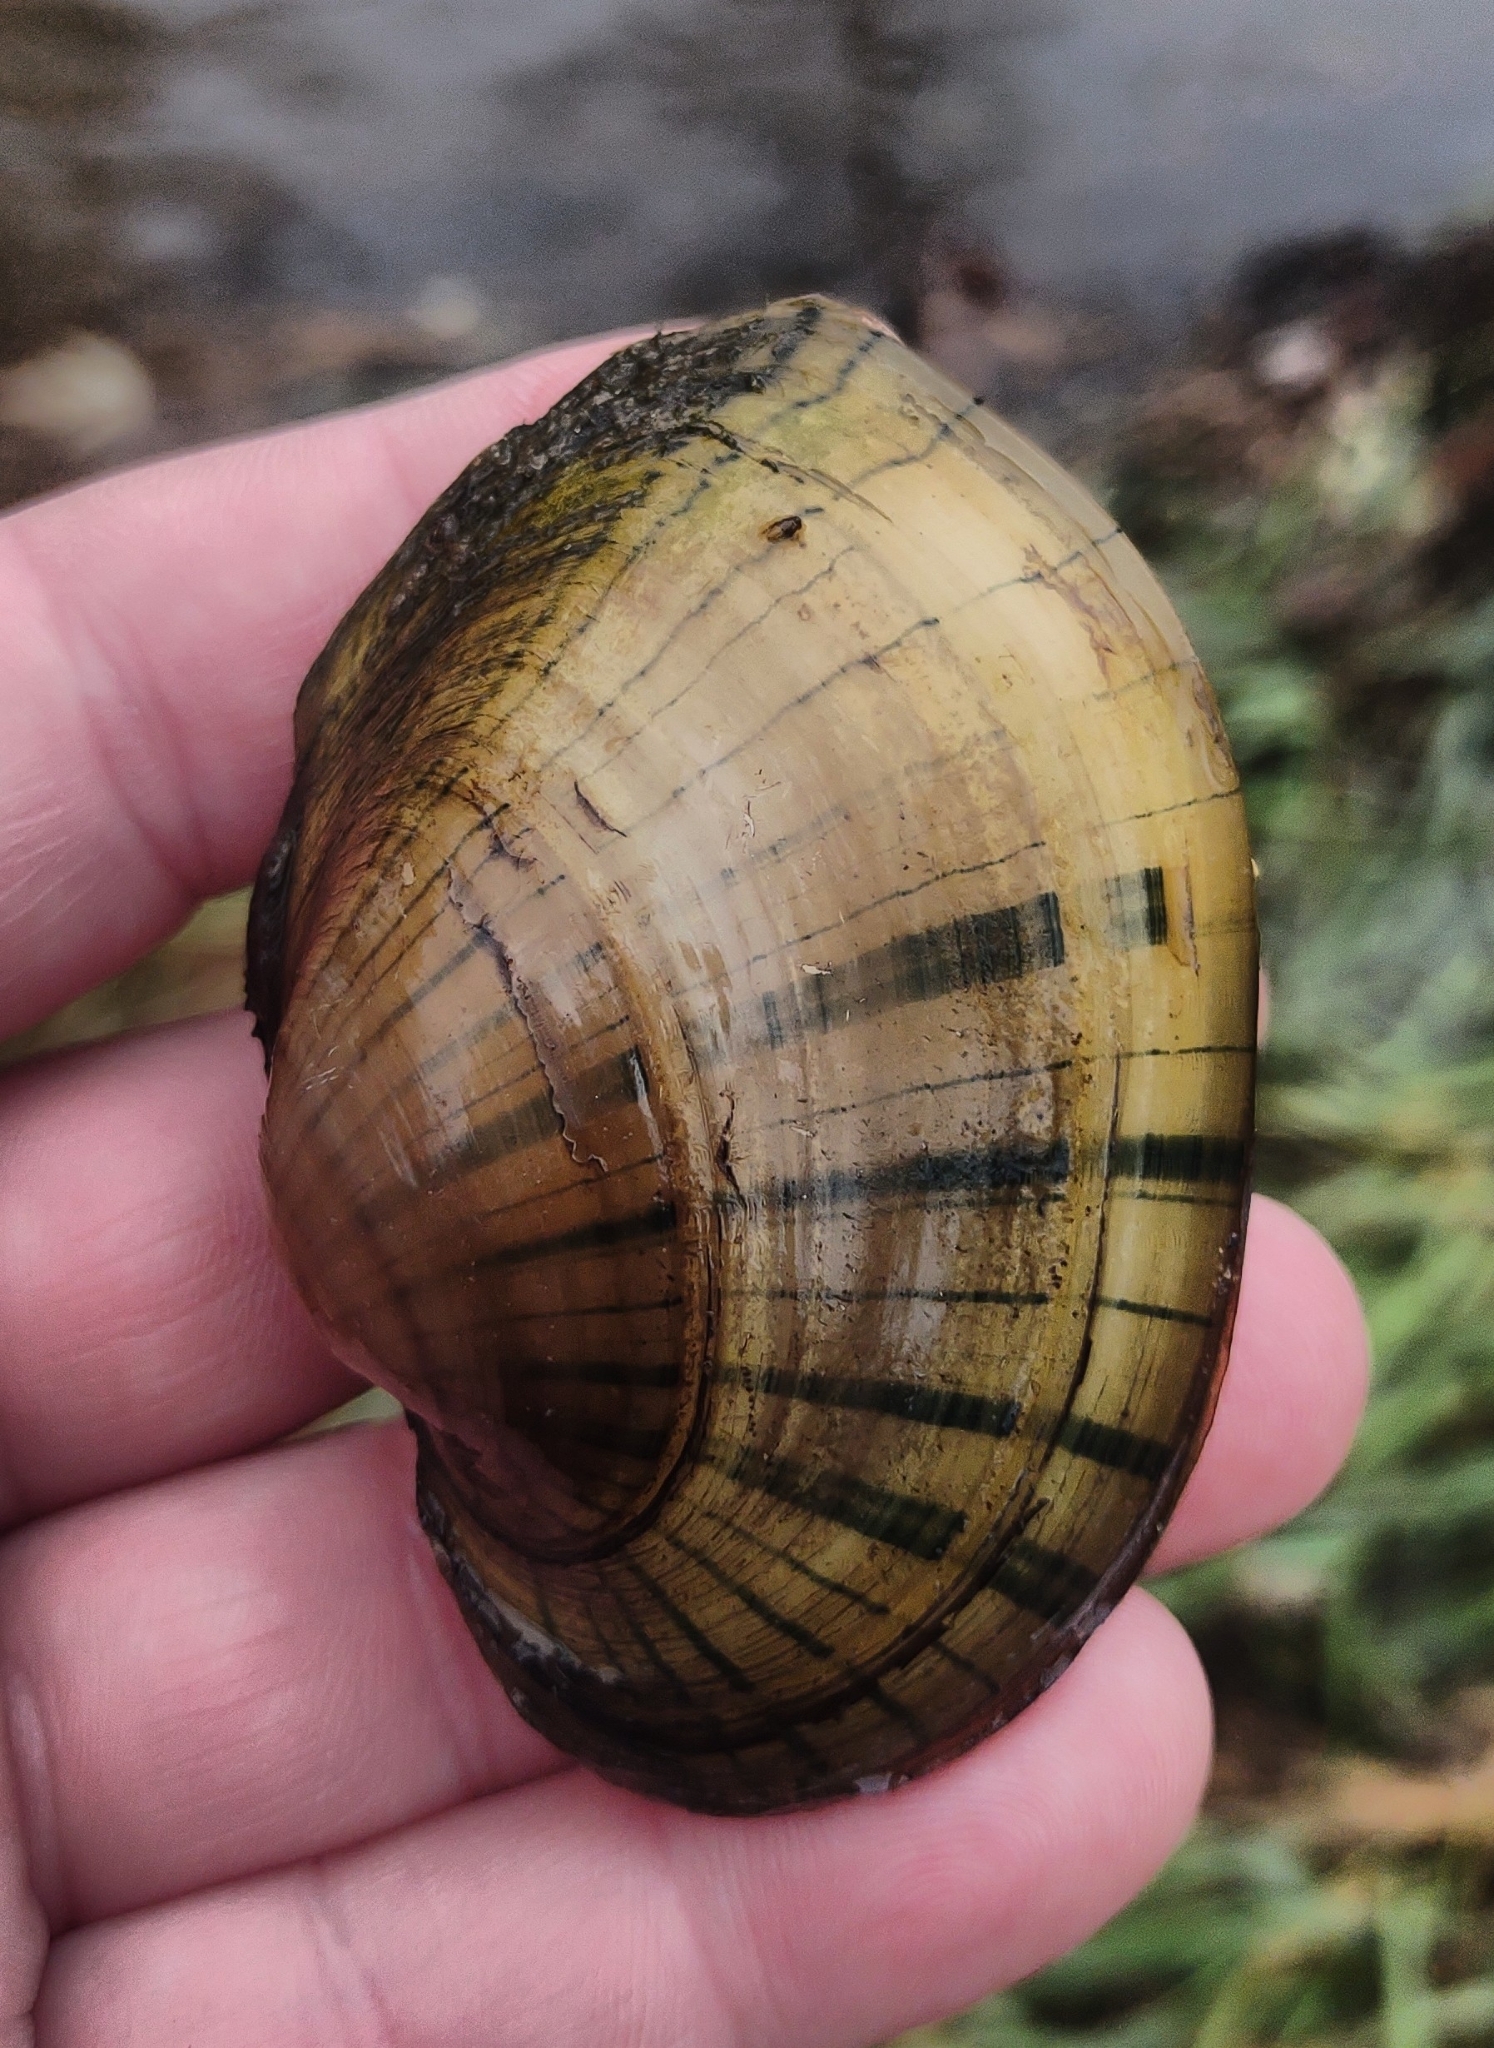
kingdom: Animalia
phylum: Mollusca
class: Bivalvia
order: Unionida
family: Unionidae
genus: Lampsilis
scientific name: Lampsilis cardium
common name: Plain pocketbook
